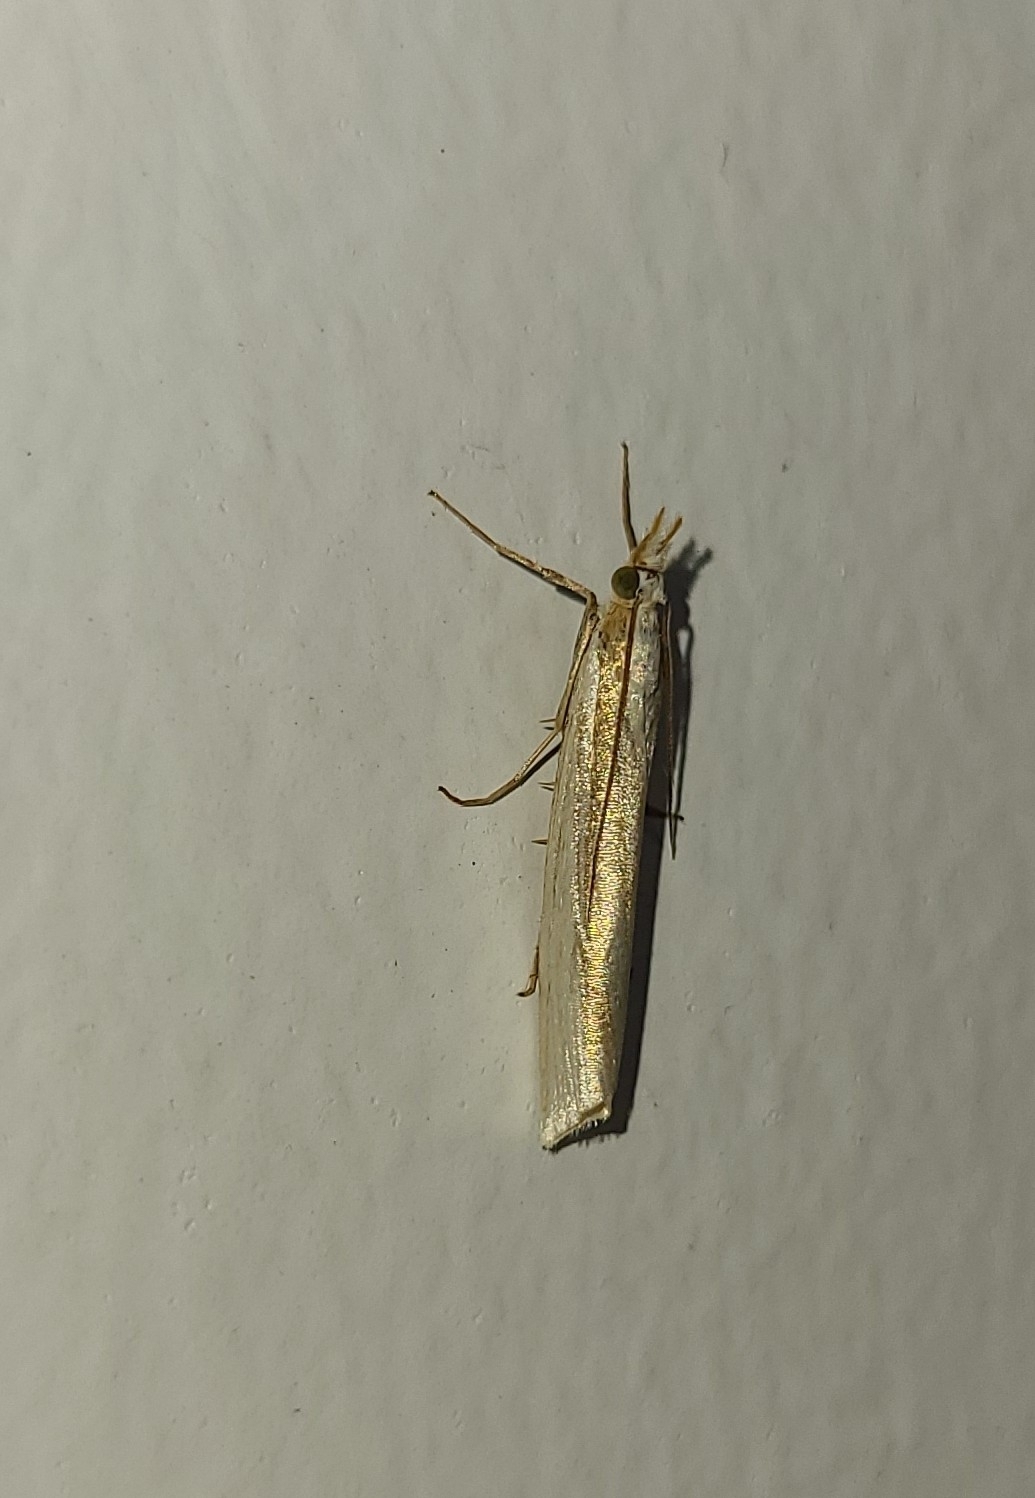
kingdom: Animalia
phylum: Arthropoda
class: Insecta
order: Lepidoptera
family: Crambidae
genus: Orocrambus
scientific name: Orocrambus ramosellus
